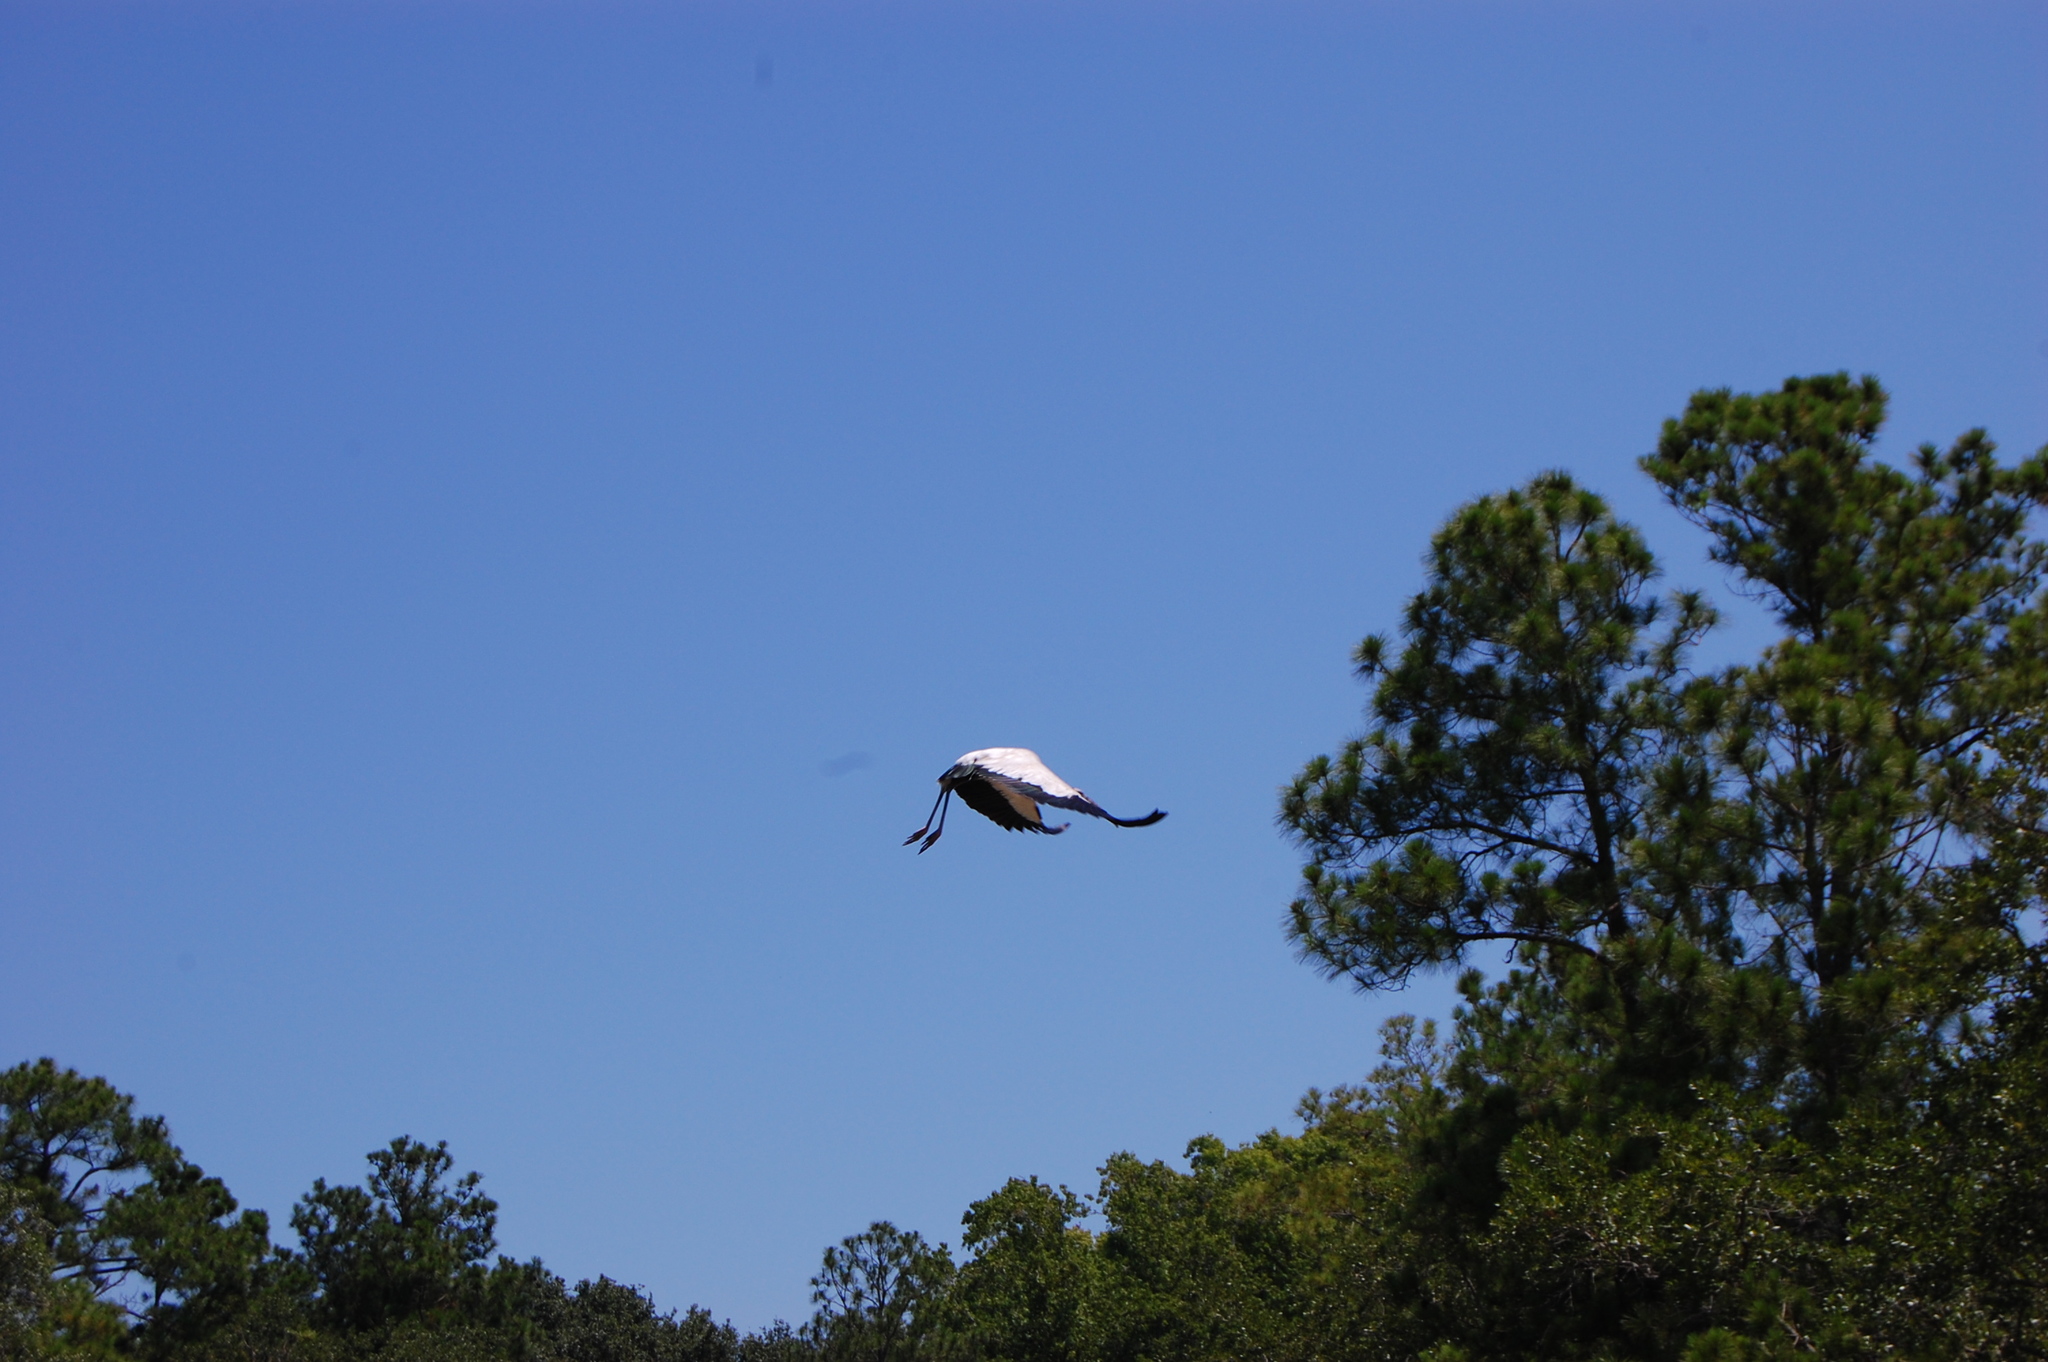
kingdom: Animalia
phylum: Chordata
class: Aves
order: Ciconiiformes
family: Ciconiidae
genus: Mycteria
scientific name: Mycteria americana
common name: Wood stork
